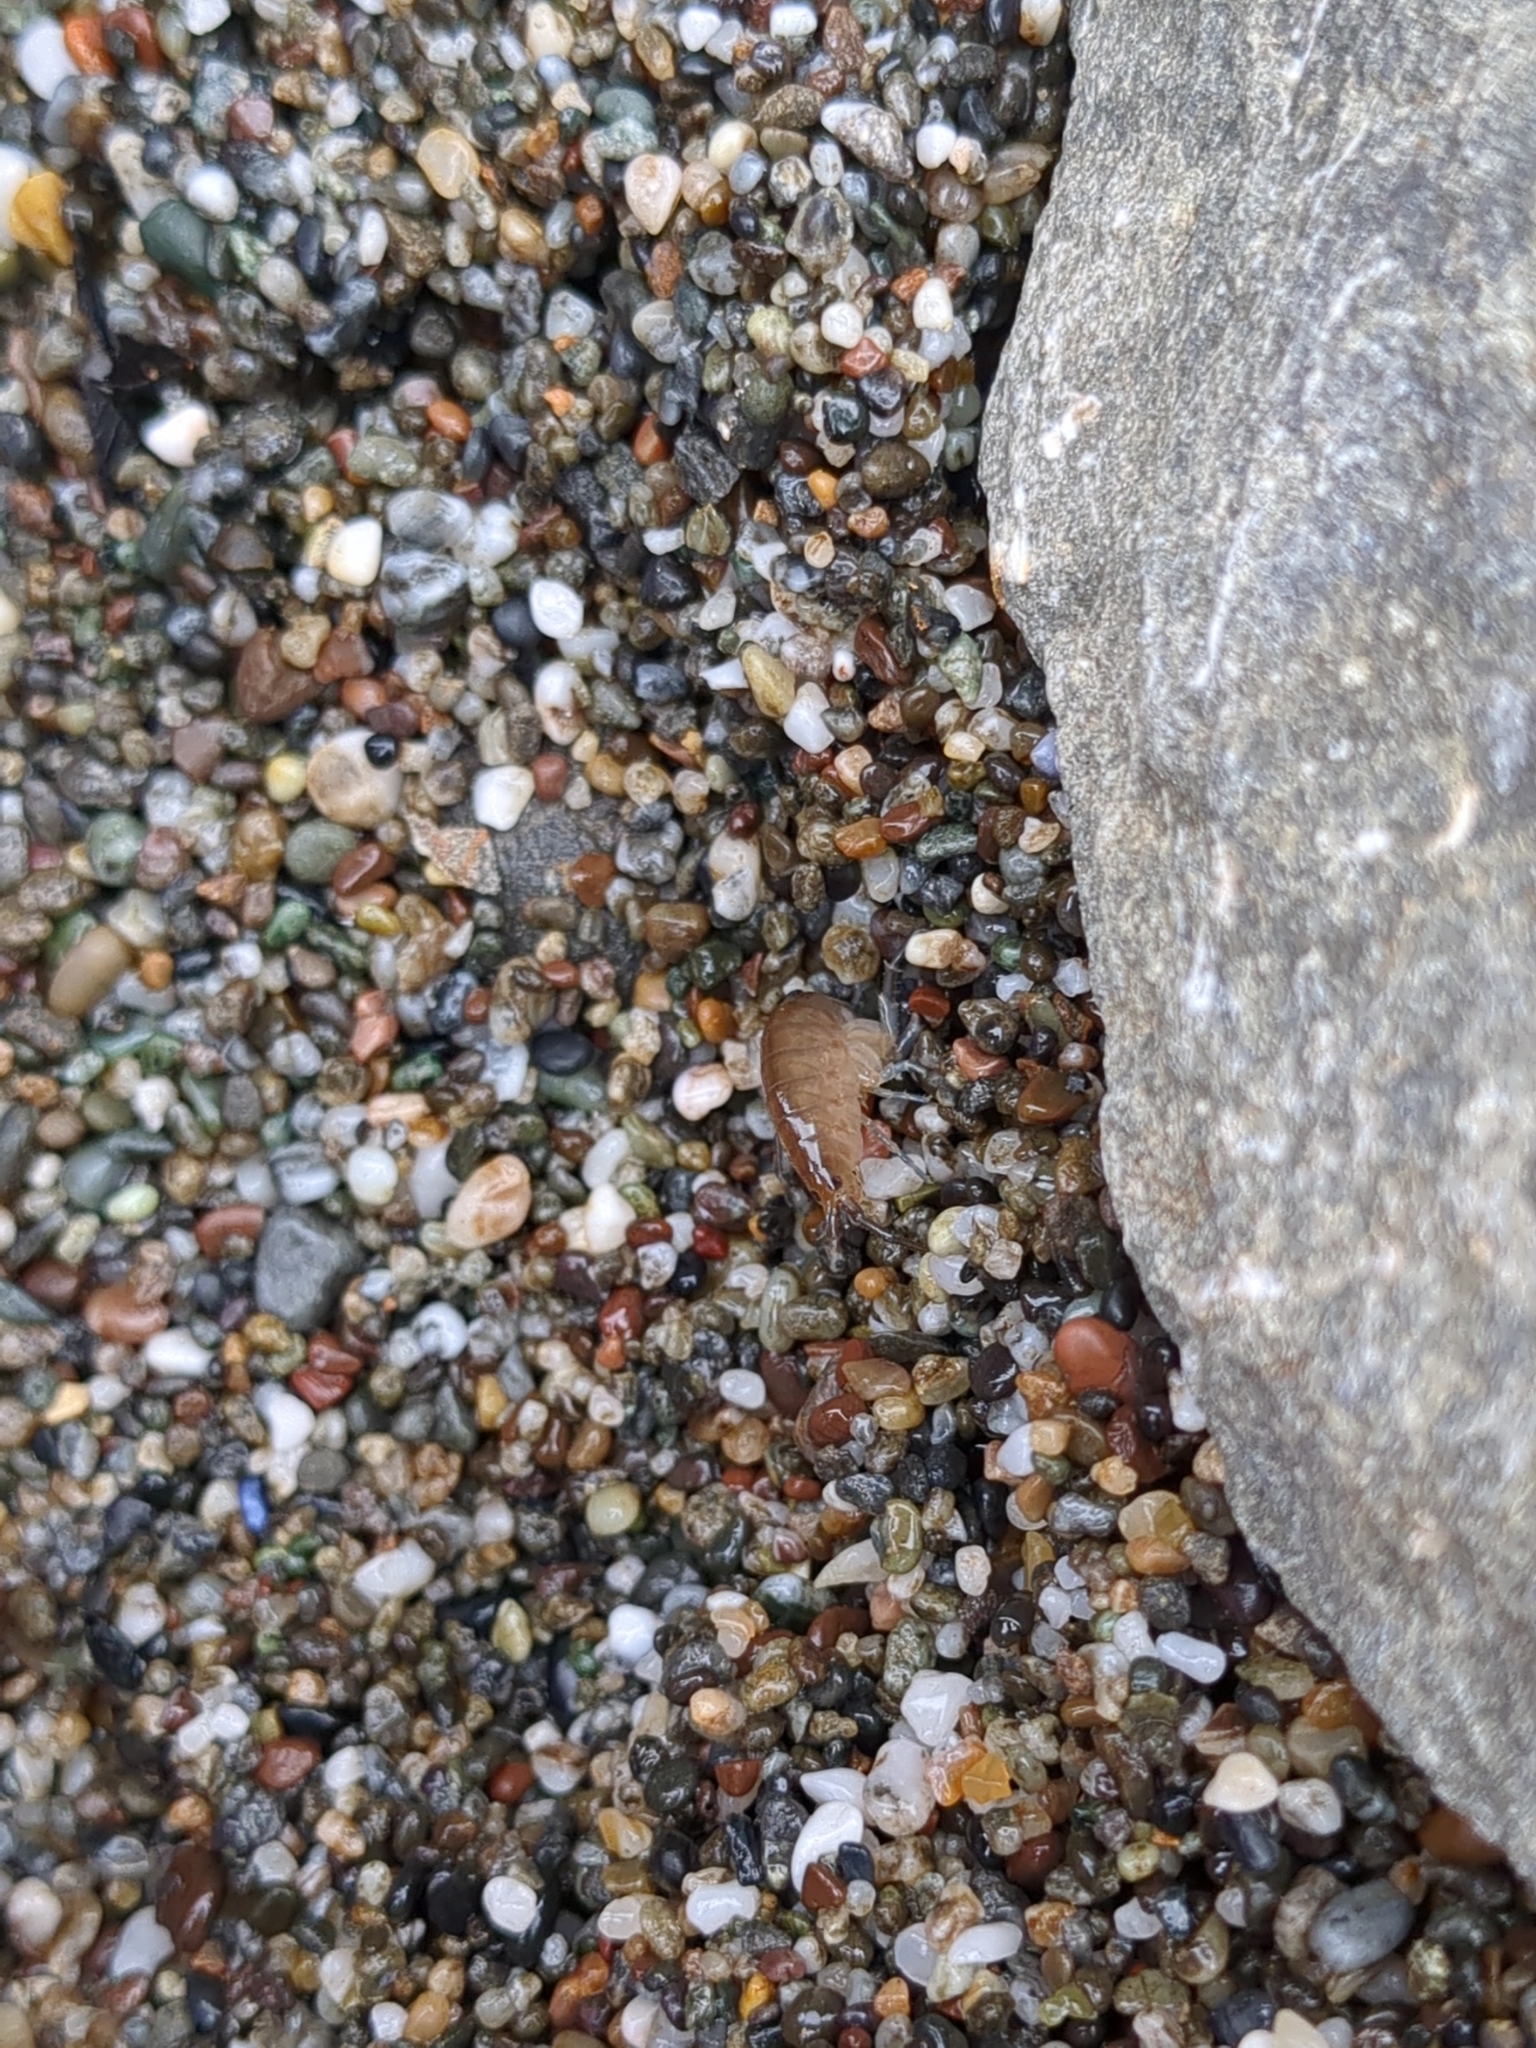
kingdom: Animalia
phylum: Arthropoda
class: Malacostraca
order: Amphipoda
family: Talitridae
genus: Traskorchestia
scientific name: Traskorchestia traskiana
